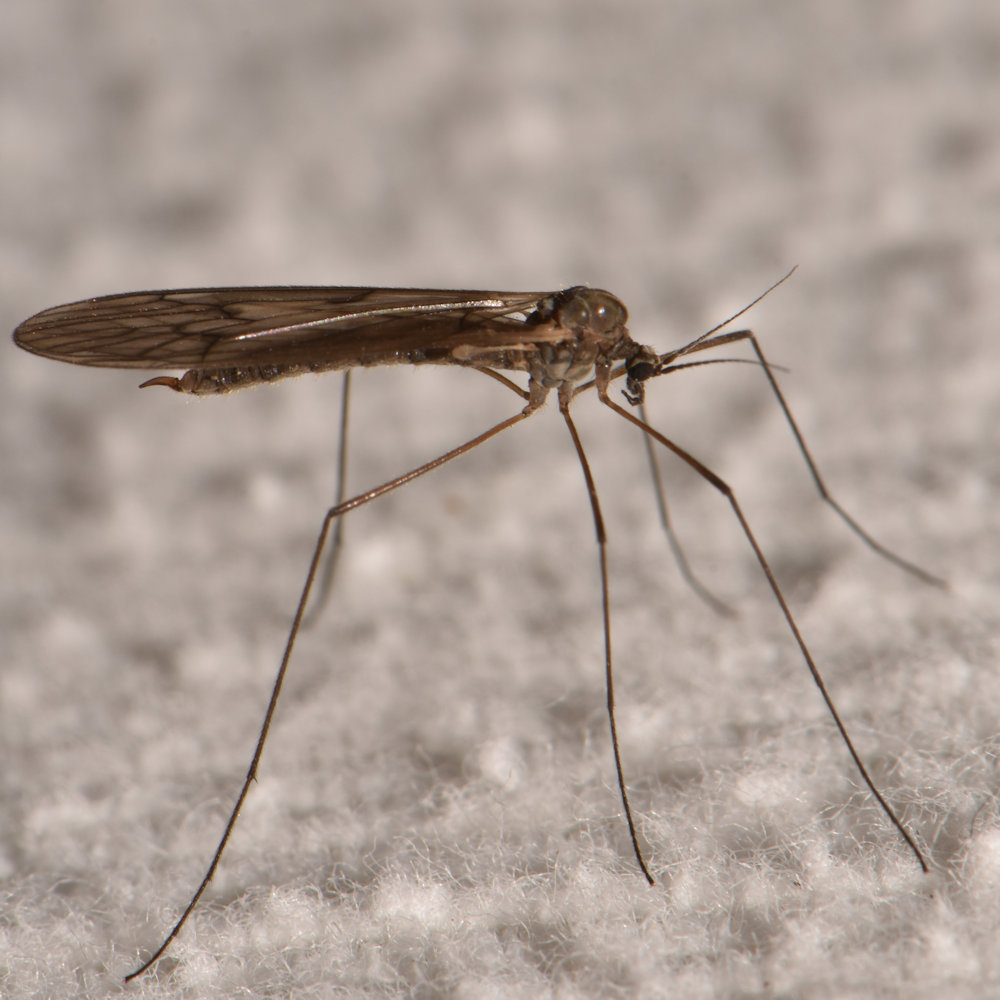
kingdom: Animalia
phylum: Arthropoda
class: Insecta
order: Diptera
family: Trichoceridae
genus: Trichocera
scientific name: Trichocera bimacula
